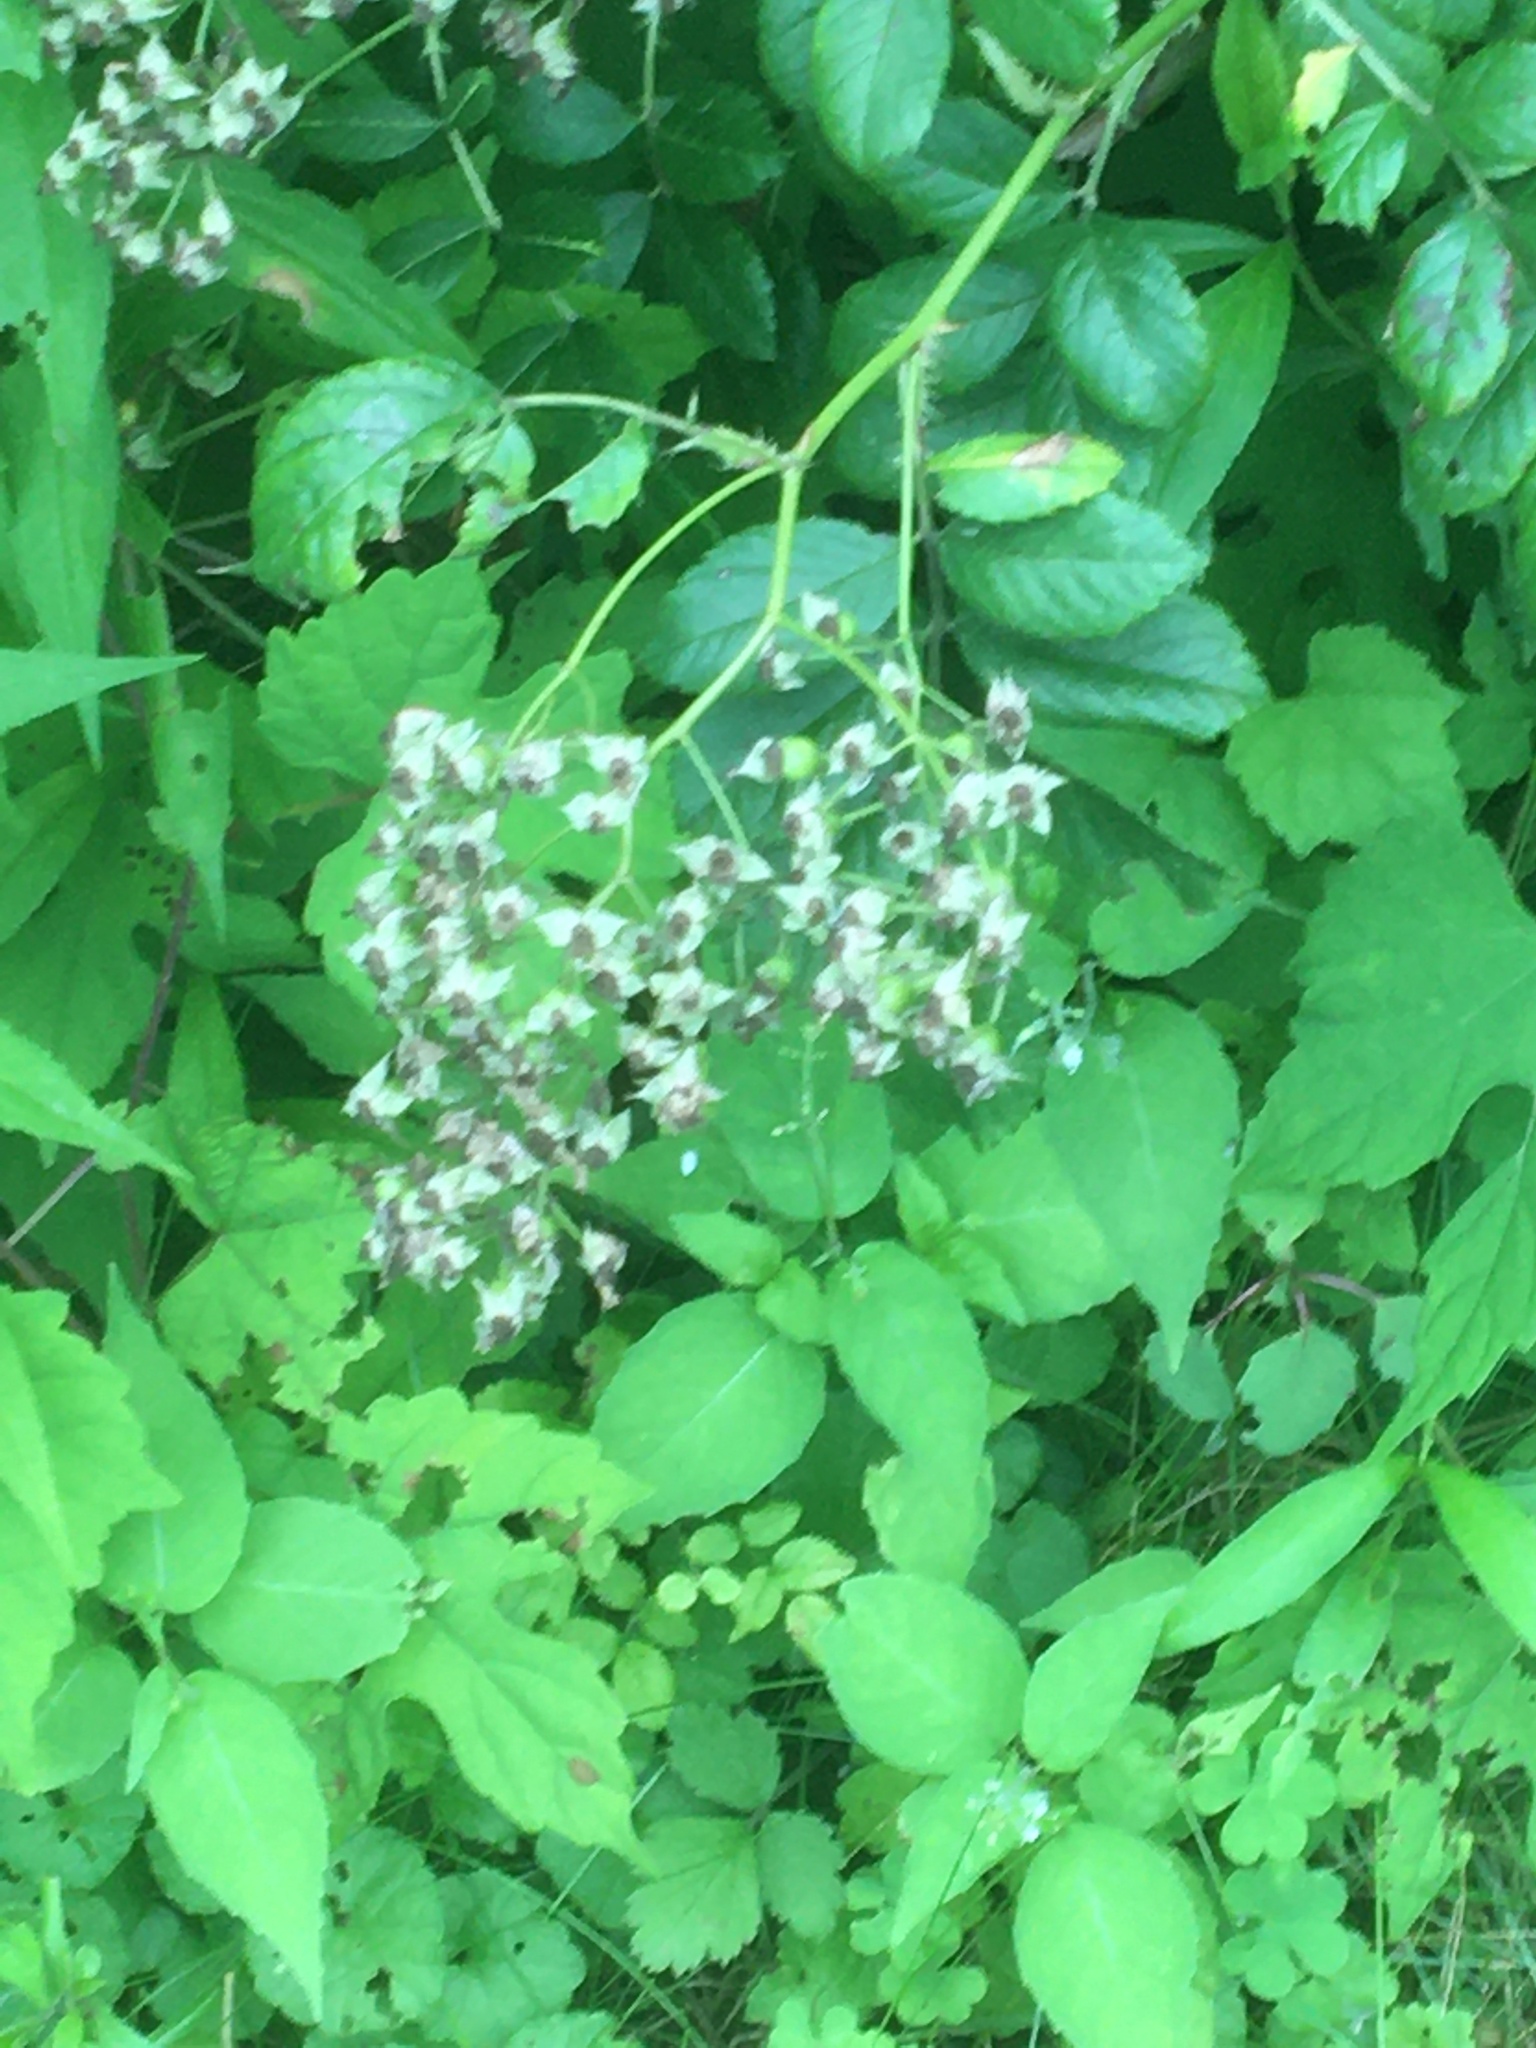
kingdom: Plantae
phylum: Tracheophyta
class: Magnoliopsida
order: Rosales
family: Rosaceae
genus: Rosa
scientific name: Rosa multiflora
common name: Multiflora rose
